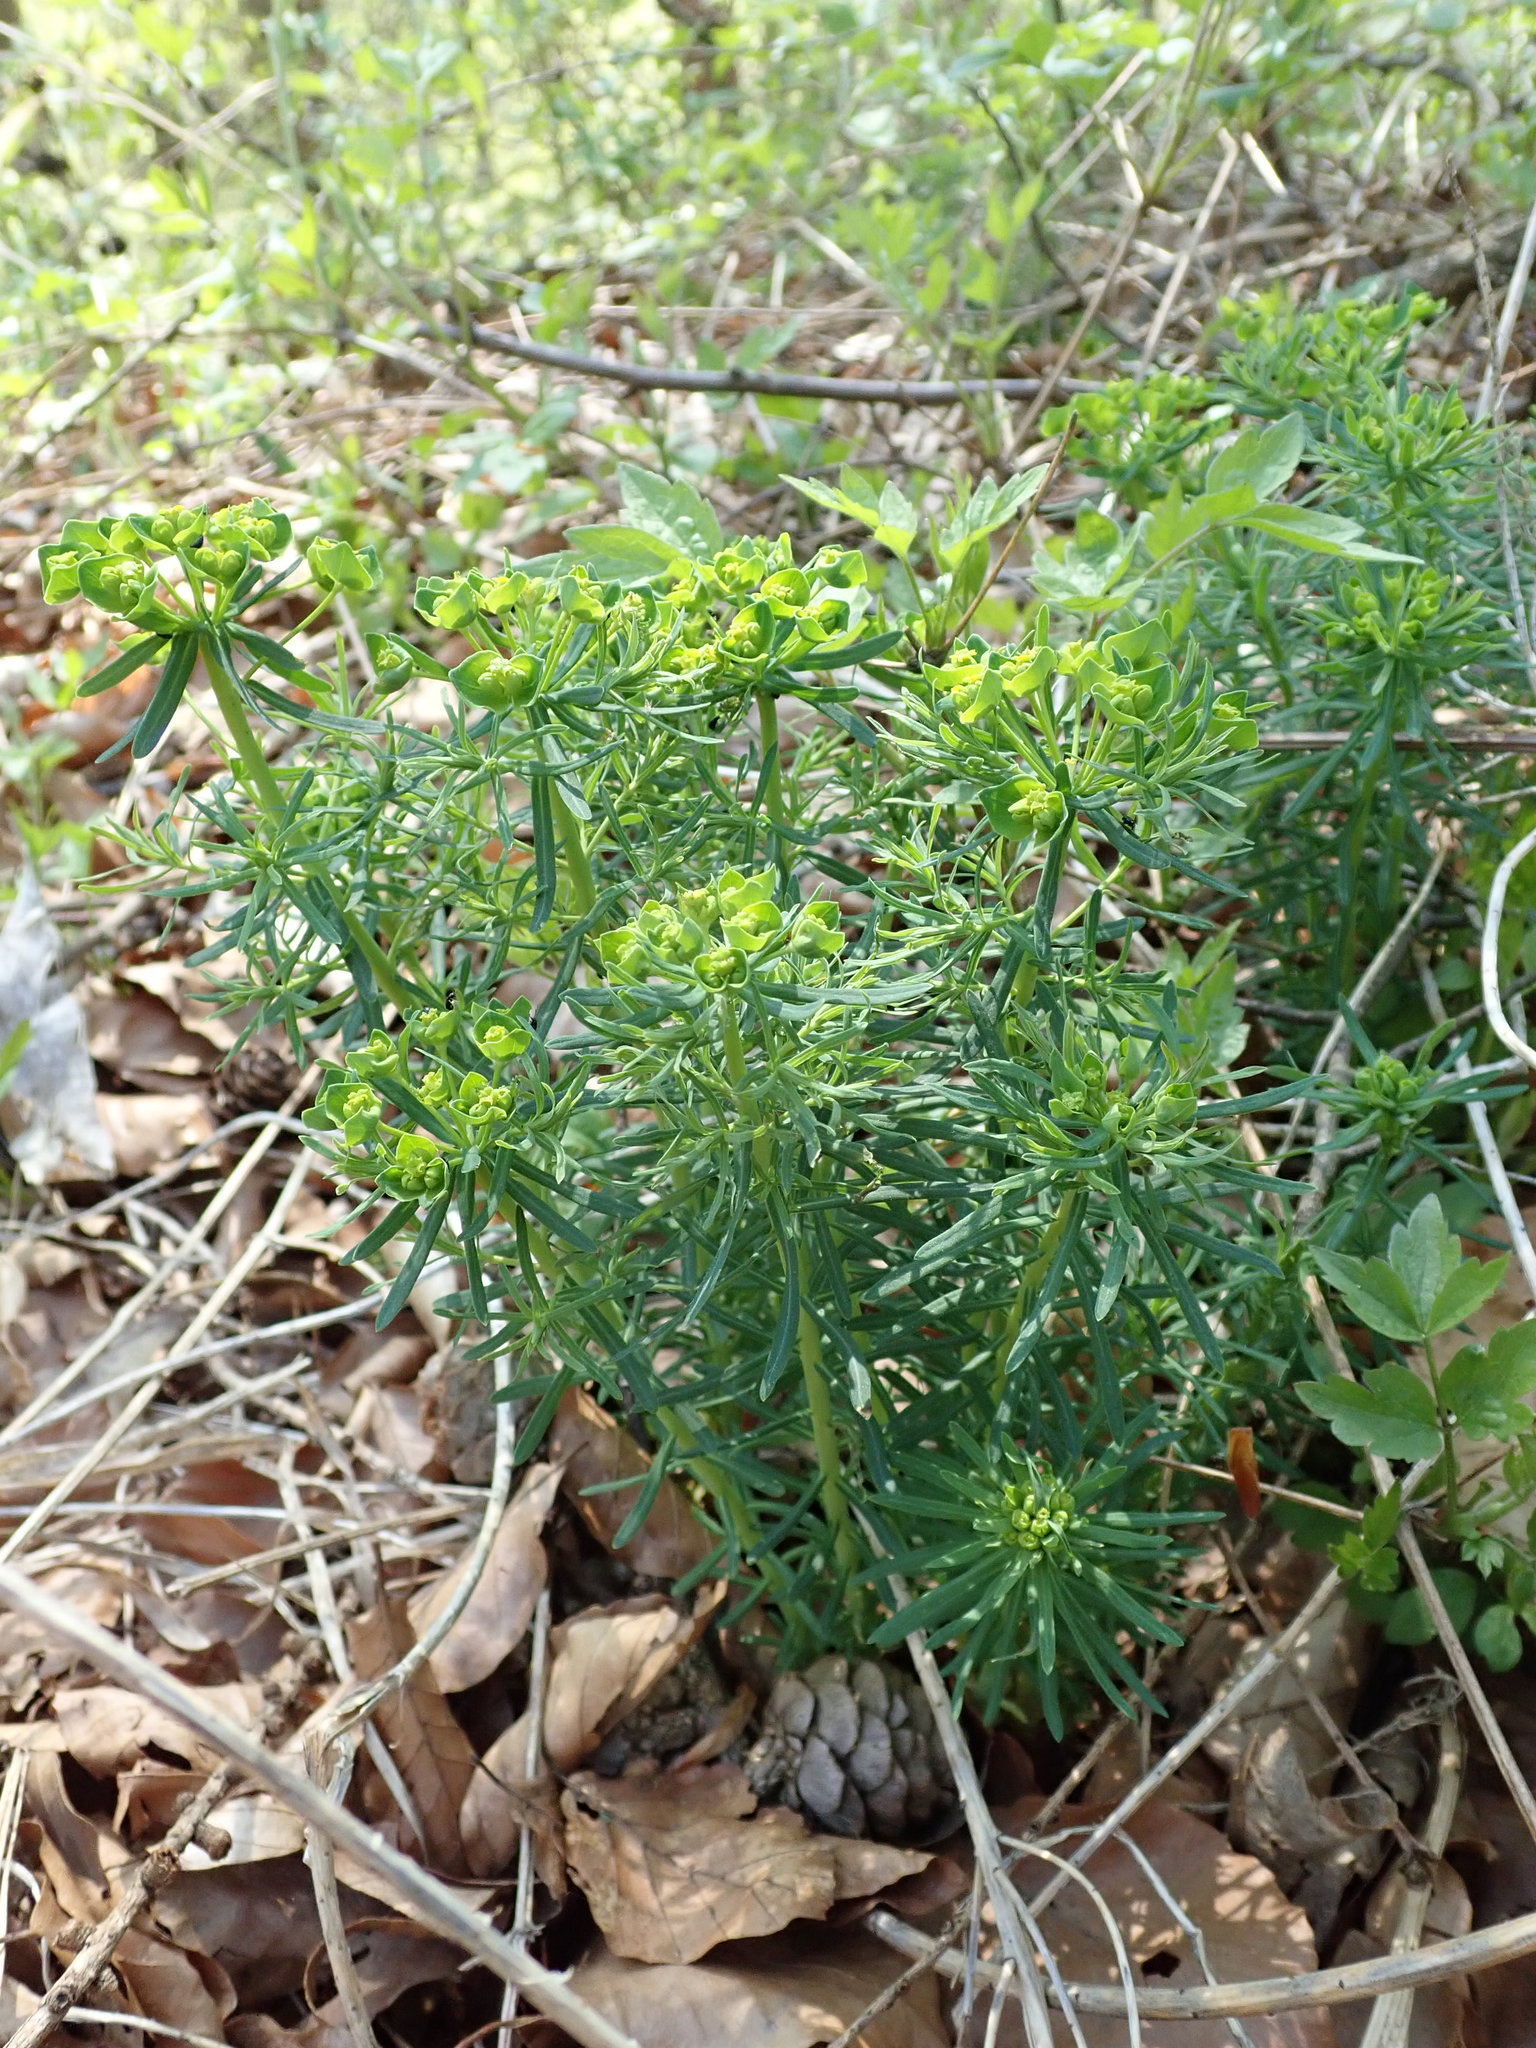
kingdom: Plantae
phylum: Tracheophyta
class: Magnoliopsida
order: Malpighiales
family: Euphorbiaceae
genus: Euphorbia
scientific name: Euphorbia cyparissias
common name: Cypress spurge
